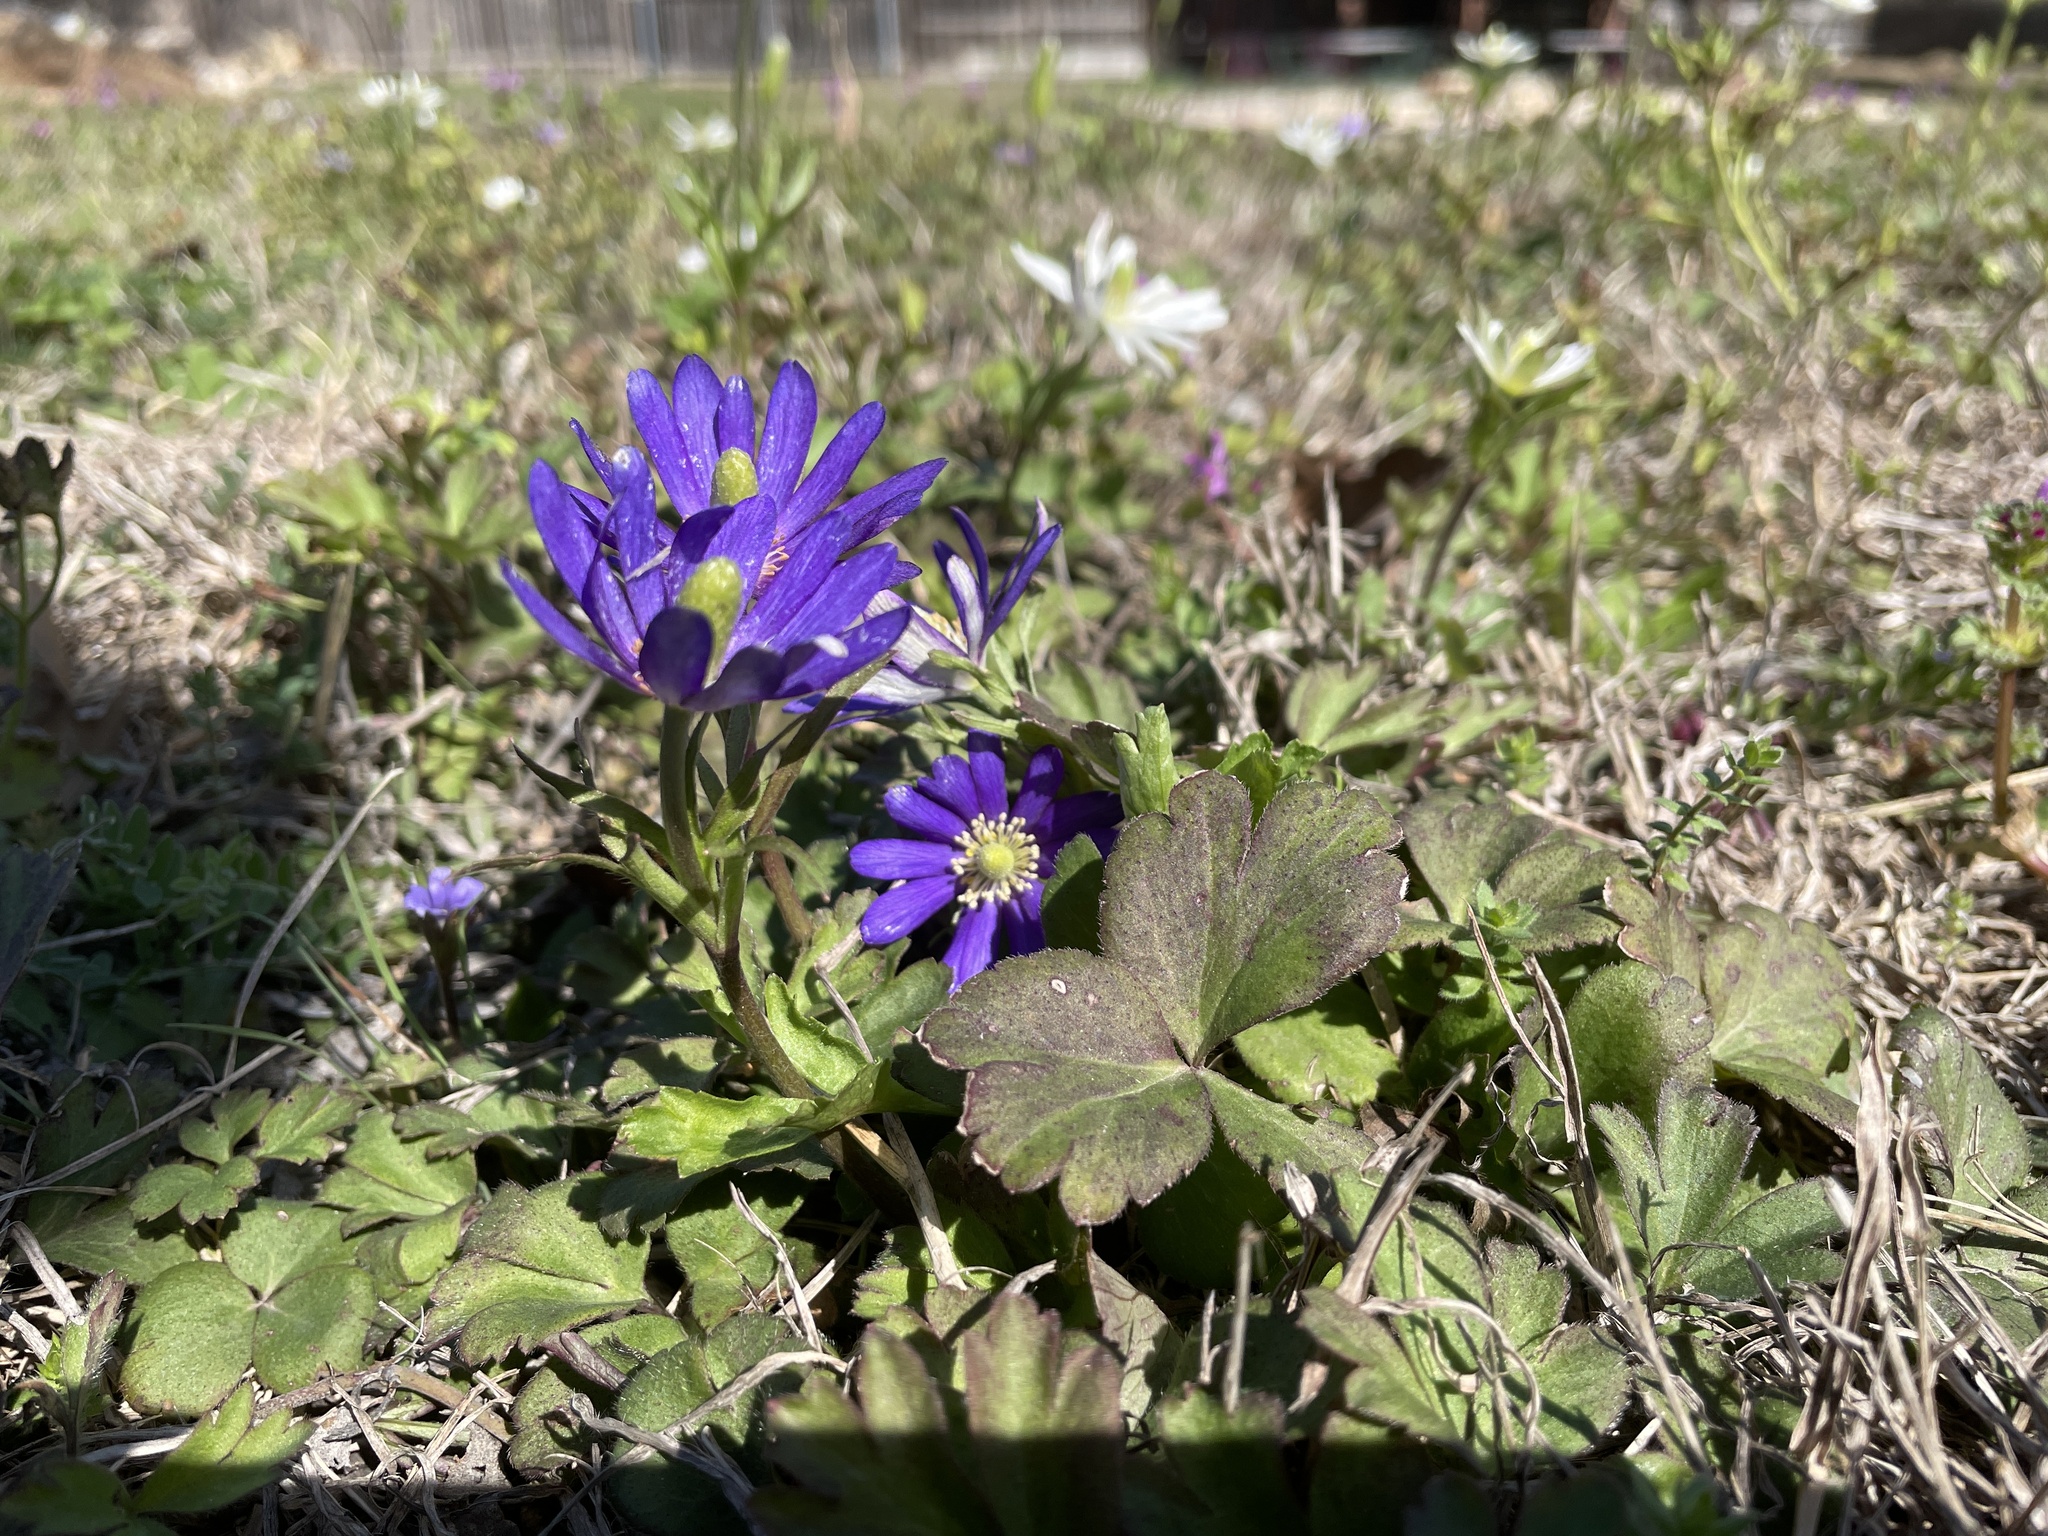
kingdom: Plantae
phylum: Tracheophyta
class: Magnoliopsida
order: Ranunculales
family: Ranunculaceae
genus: Anemone
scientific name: Anemone berlandieri
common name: Ten-petal anemone
